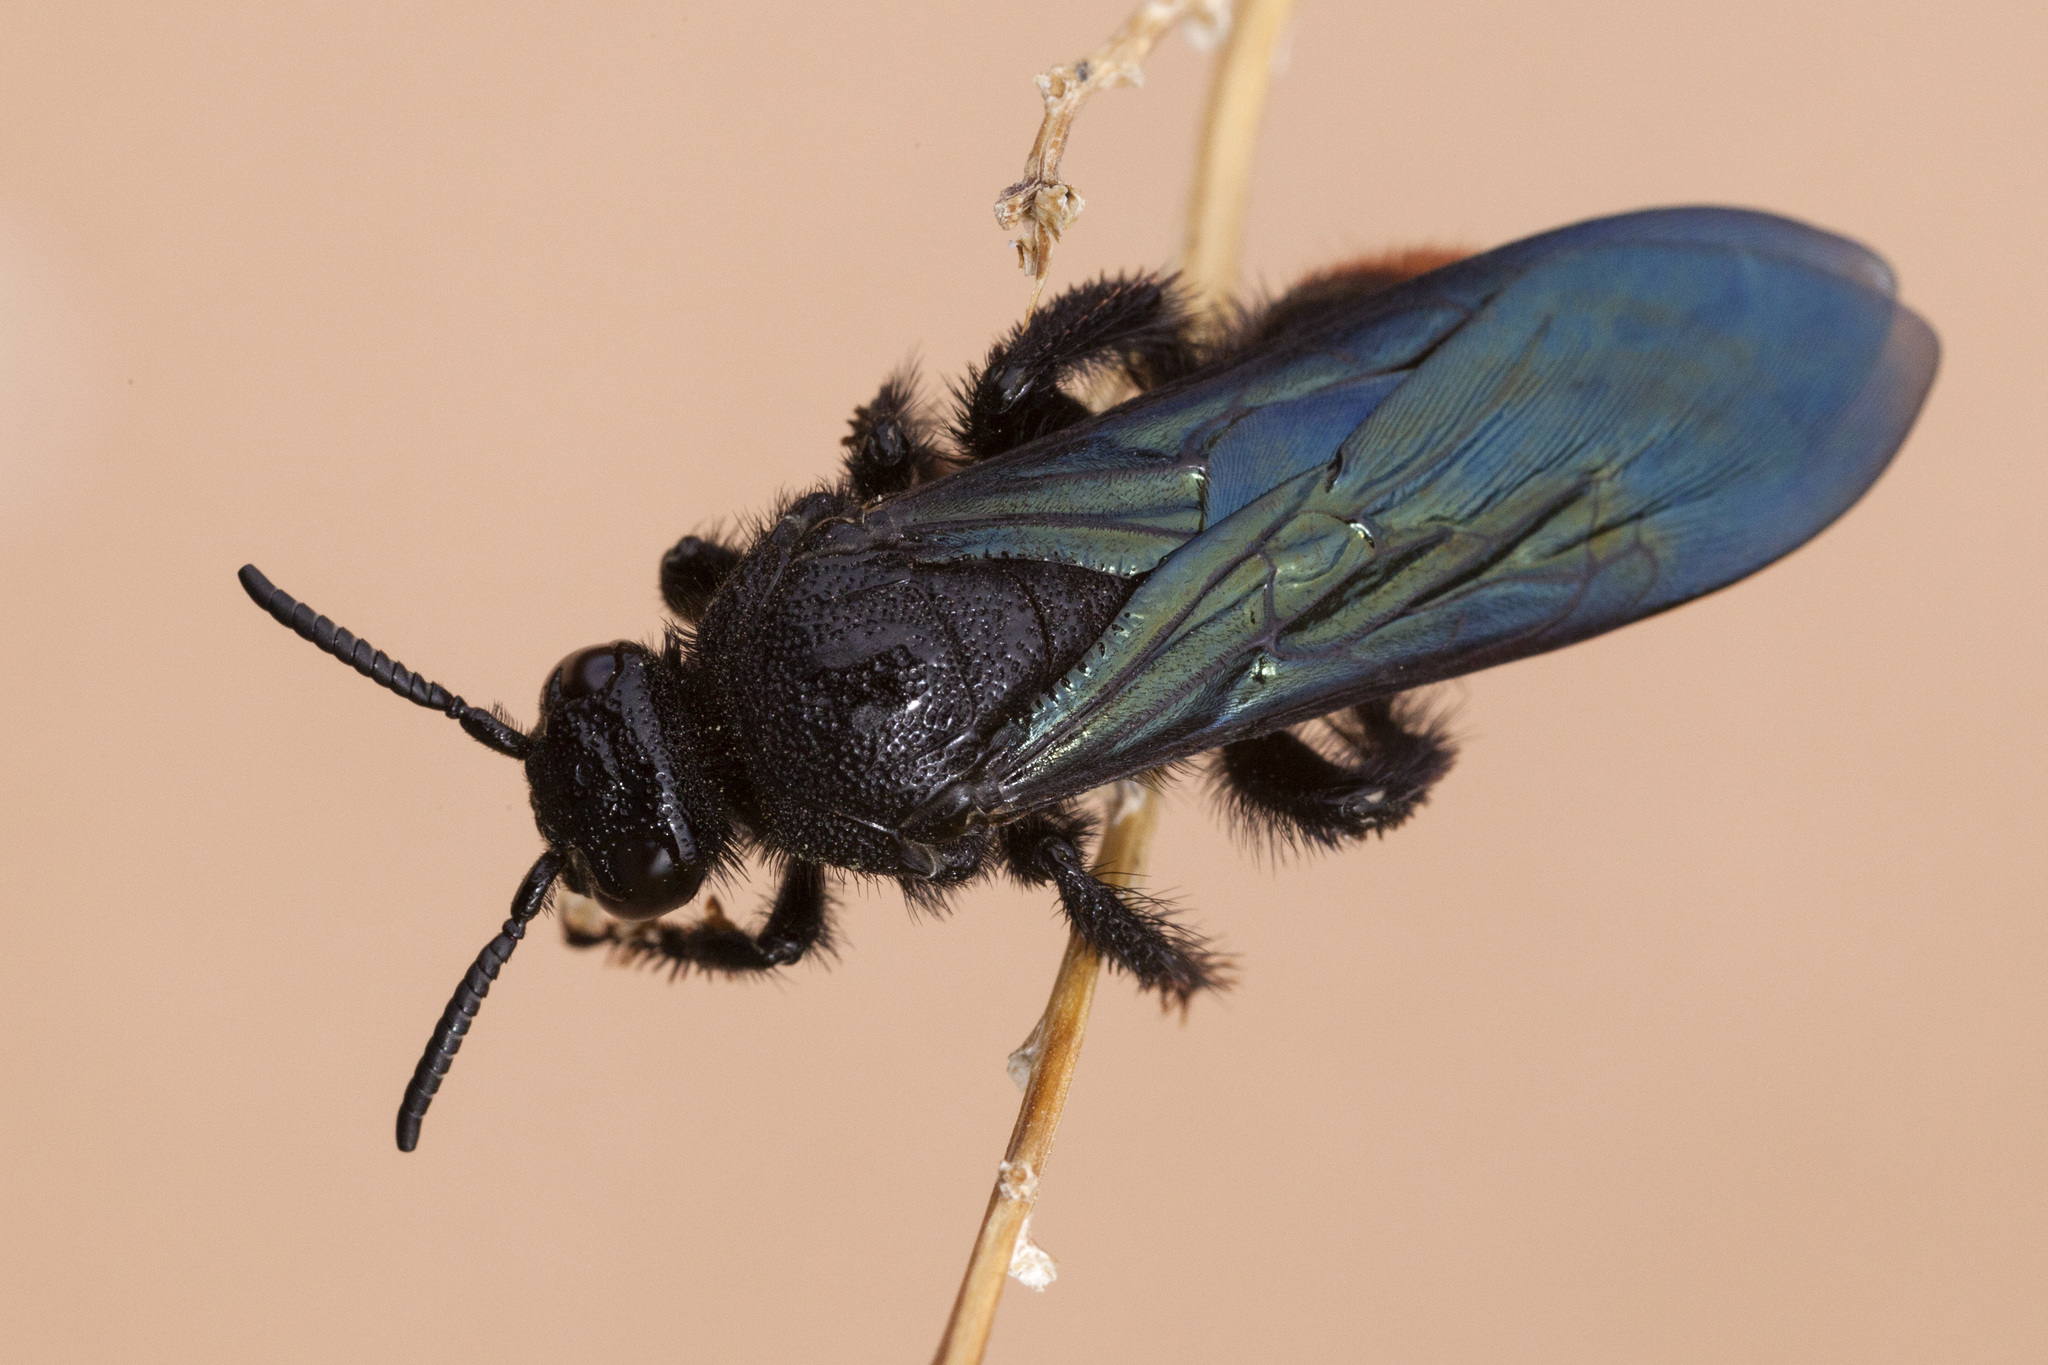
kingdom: Animalia
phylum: Arthropoda
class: Insecta
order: Hymenoptera
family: Scoliidae
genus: Triscolia
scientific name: Triscolia ardens
